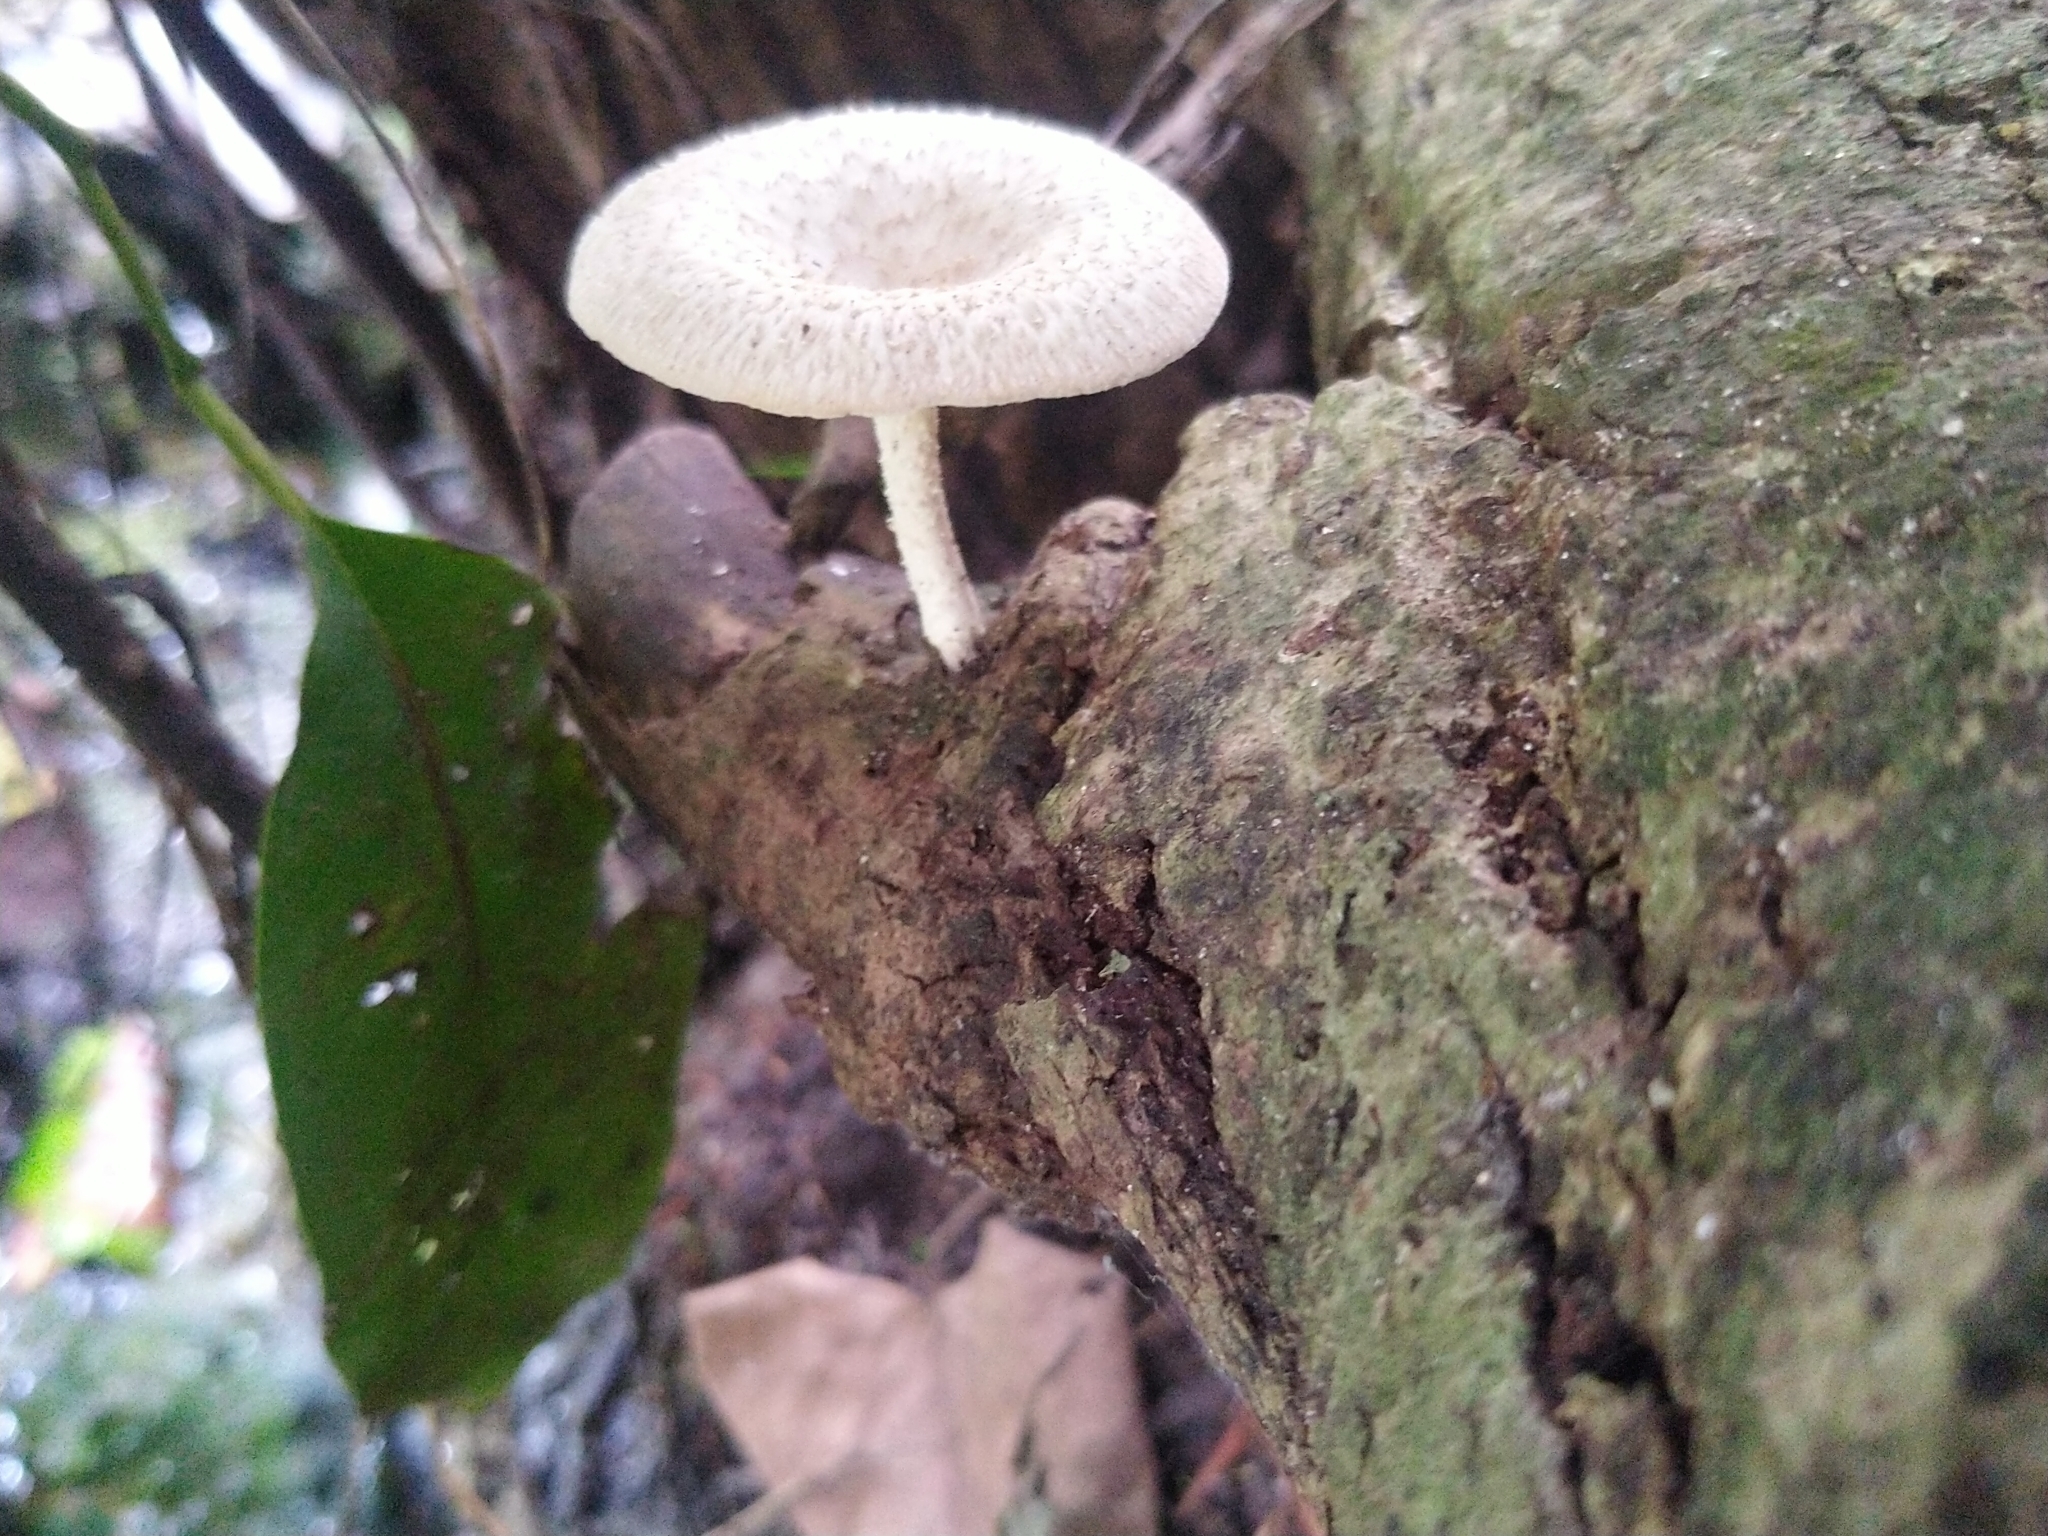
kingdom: Fungi
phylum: Basidiomycota
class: Agaricomycetes
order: Polyporales
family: Polyporaceae
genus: Lentinus
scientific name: Lentinus squarrosulus
